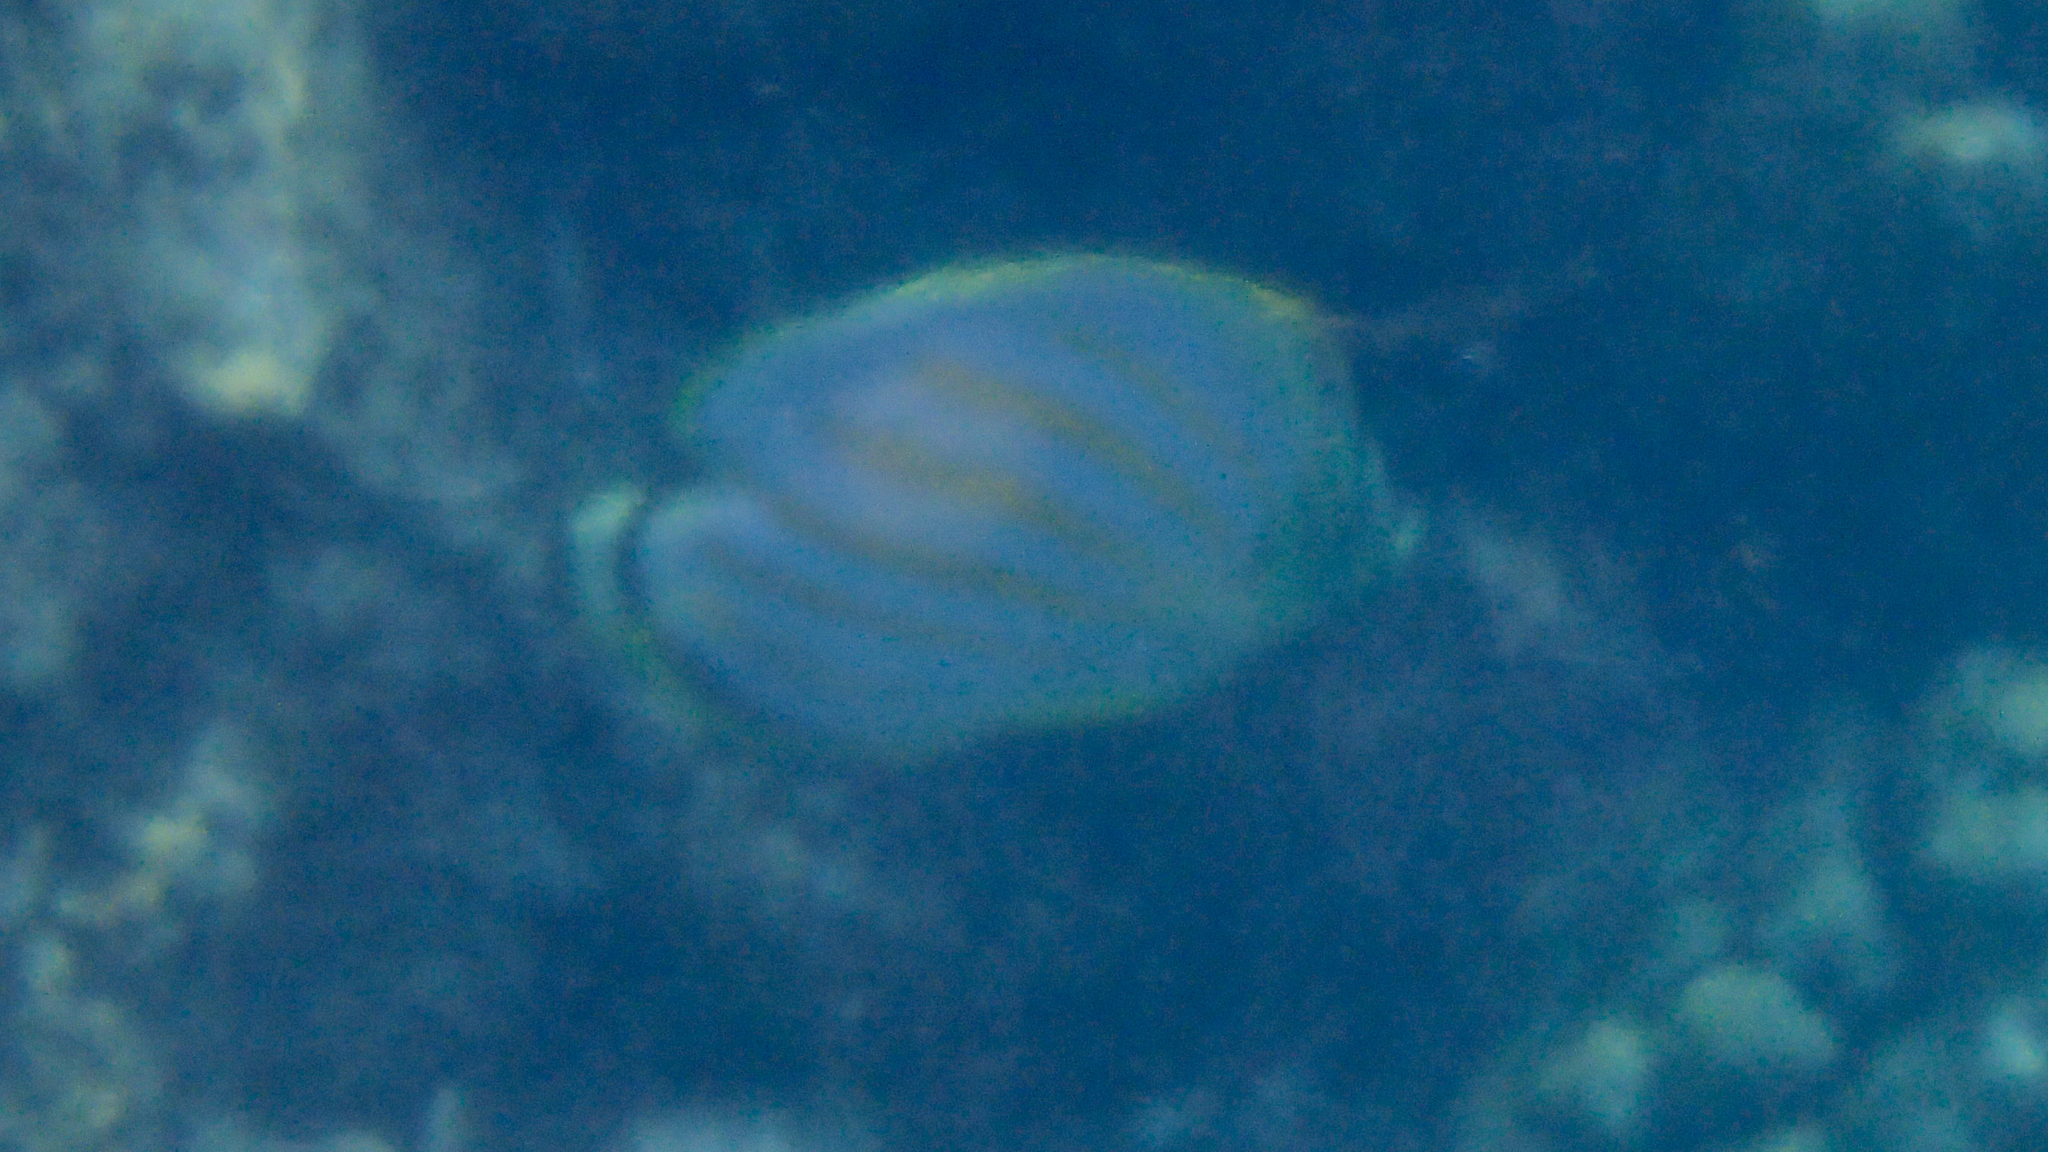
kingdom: Animalia
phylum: Chordata
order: Perciformes
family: Chaetodontidae
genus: Chaetodon
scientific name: Chaetodon ornatissimus
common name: Ornate butterflyfish
